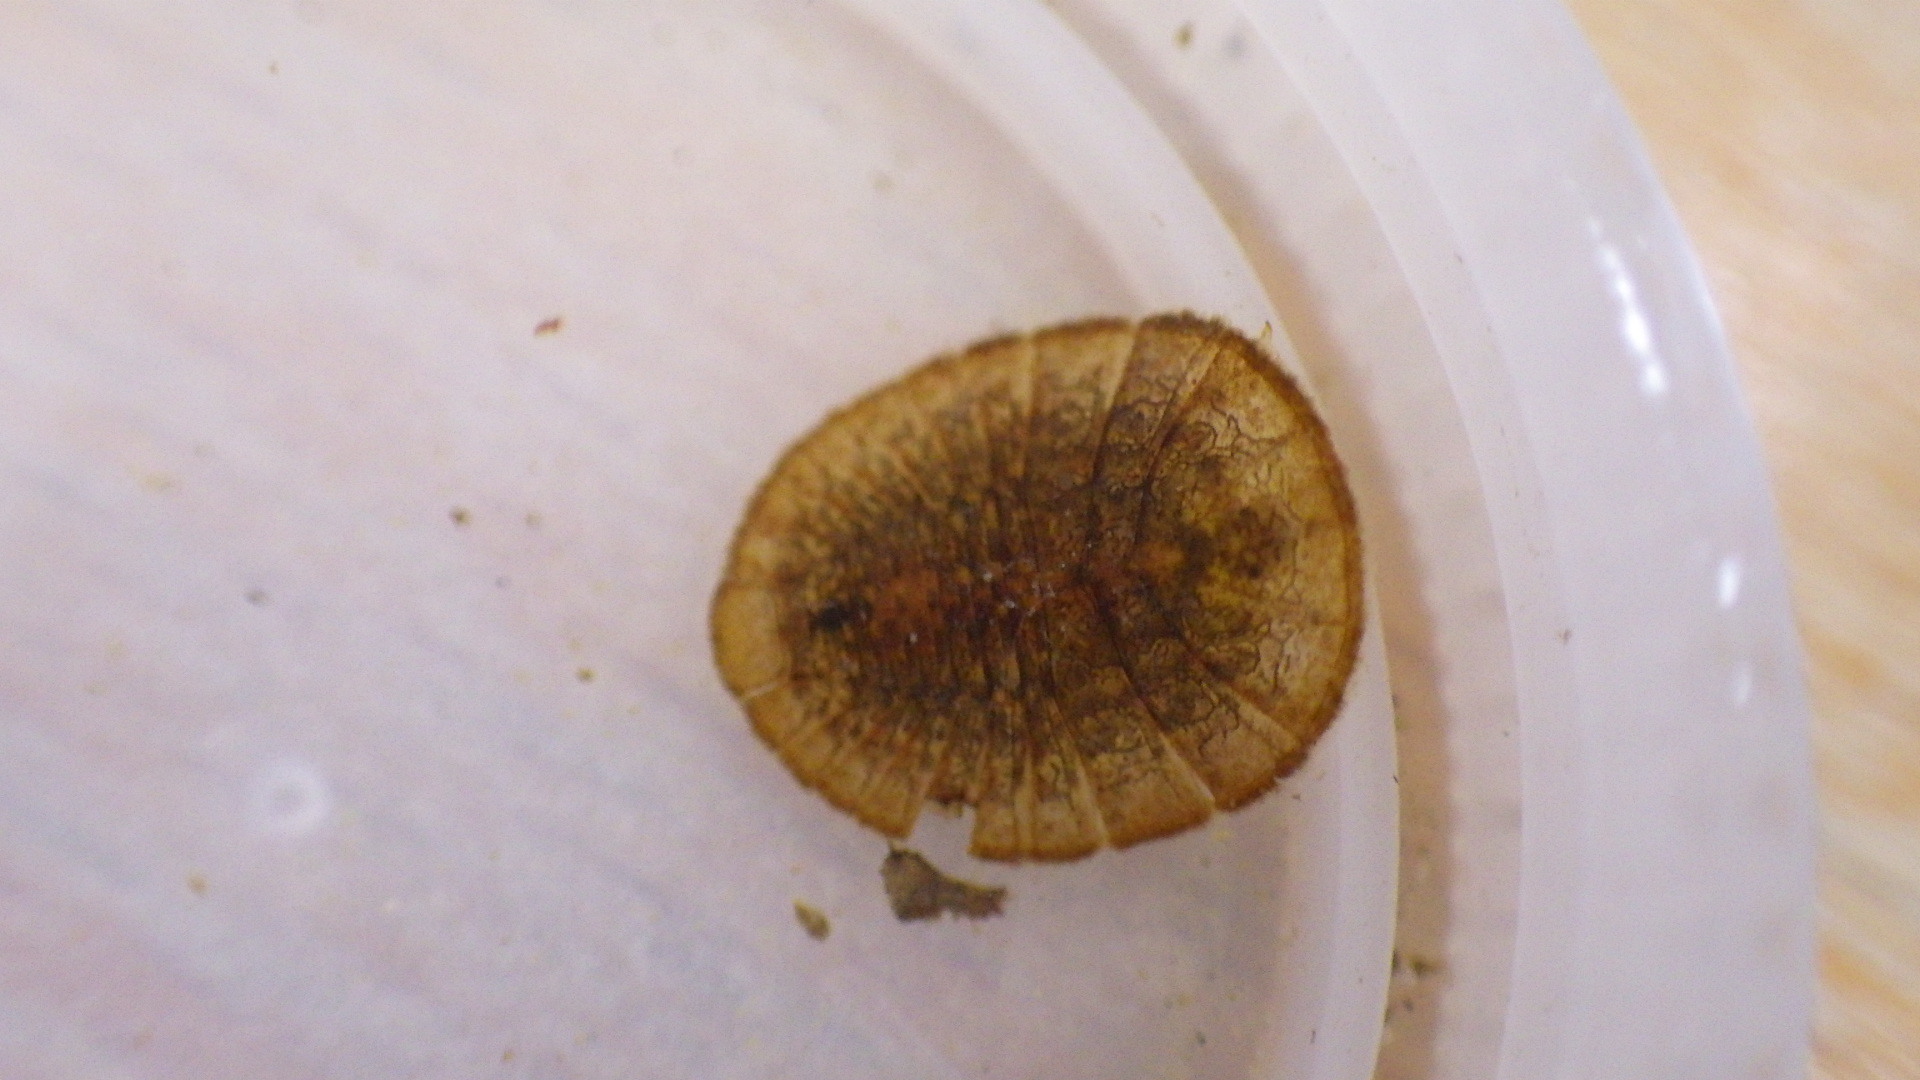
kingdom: Animalia
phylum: Arthropoda
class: Insecta
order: Coleoptera
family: Psephenidae
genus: Psephenus
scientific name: Psephenus herricki
